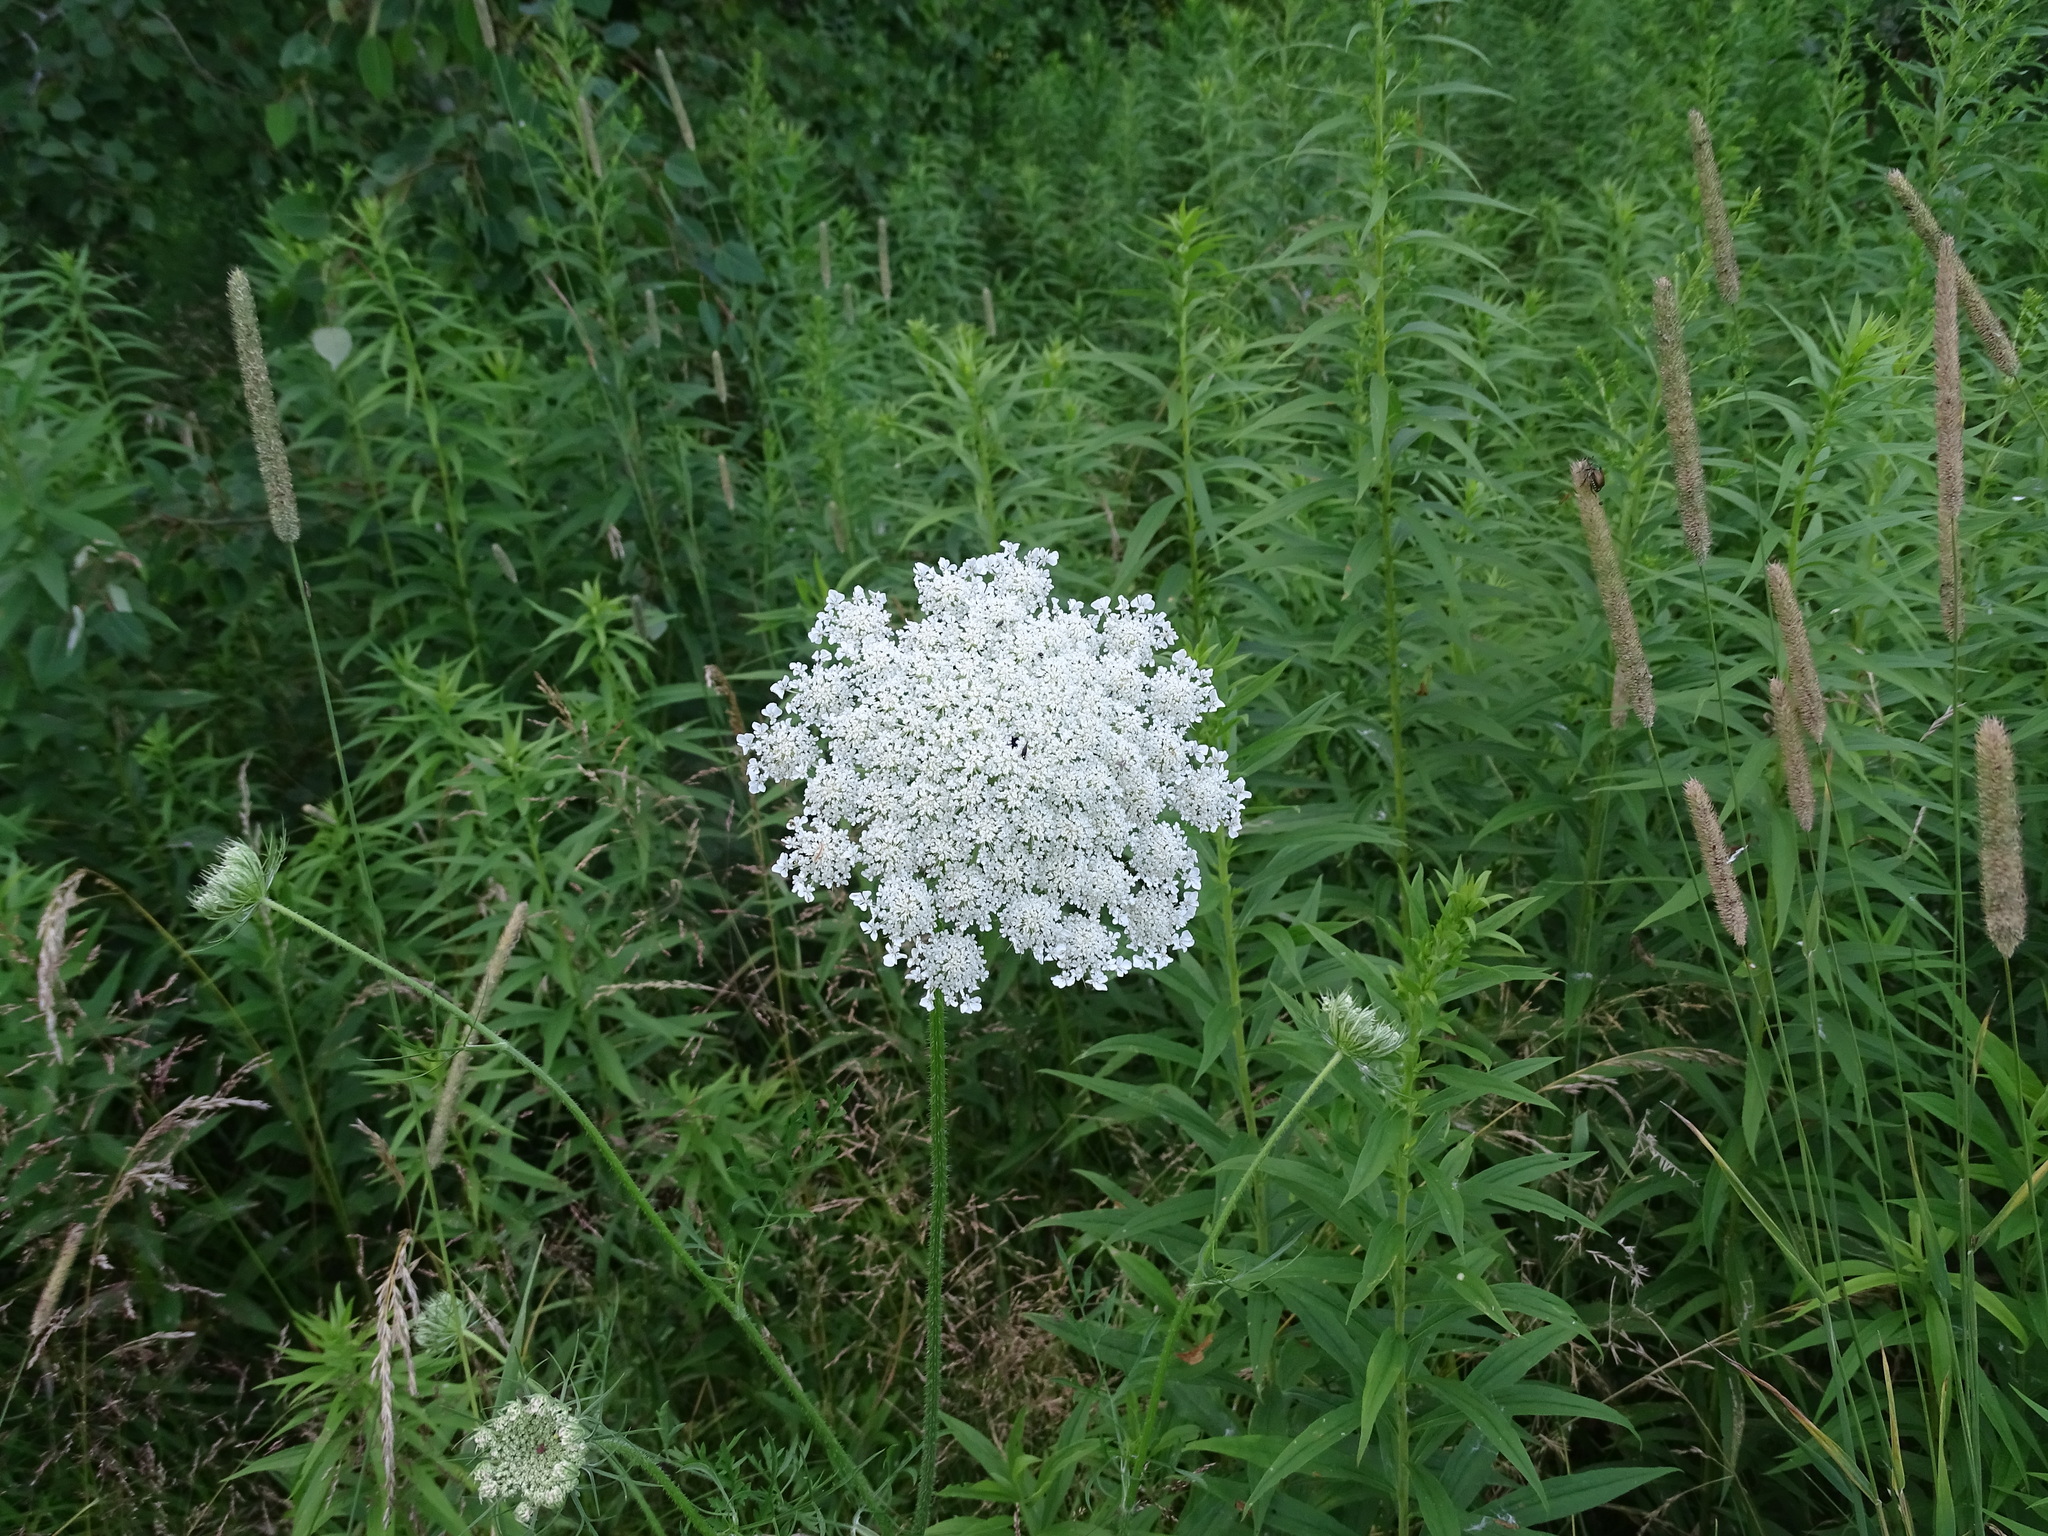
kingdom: Plantae
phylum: Tracheophyta
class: Magnoliopsida
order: Apiales
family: Apiaceae
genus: Daucus
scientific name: Daucus carota
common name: Wild carrot
